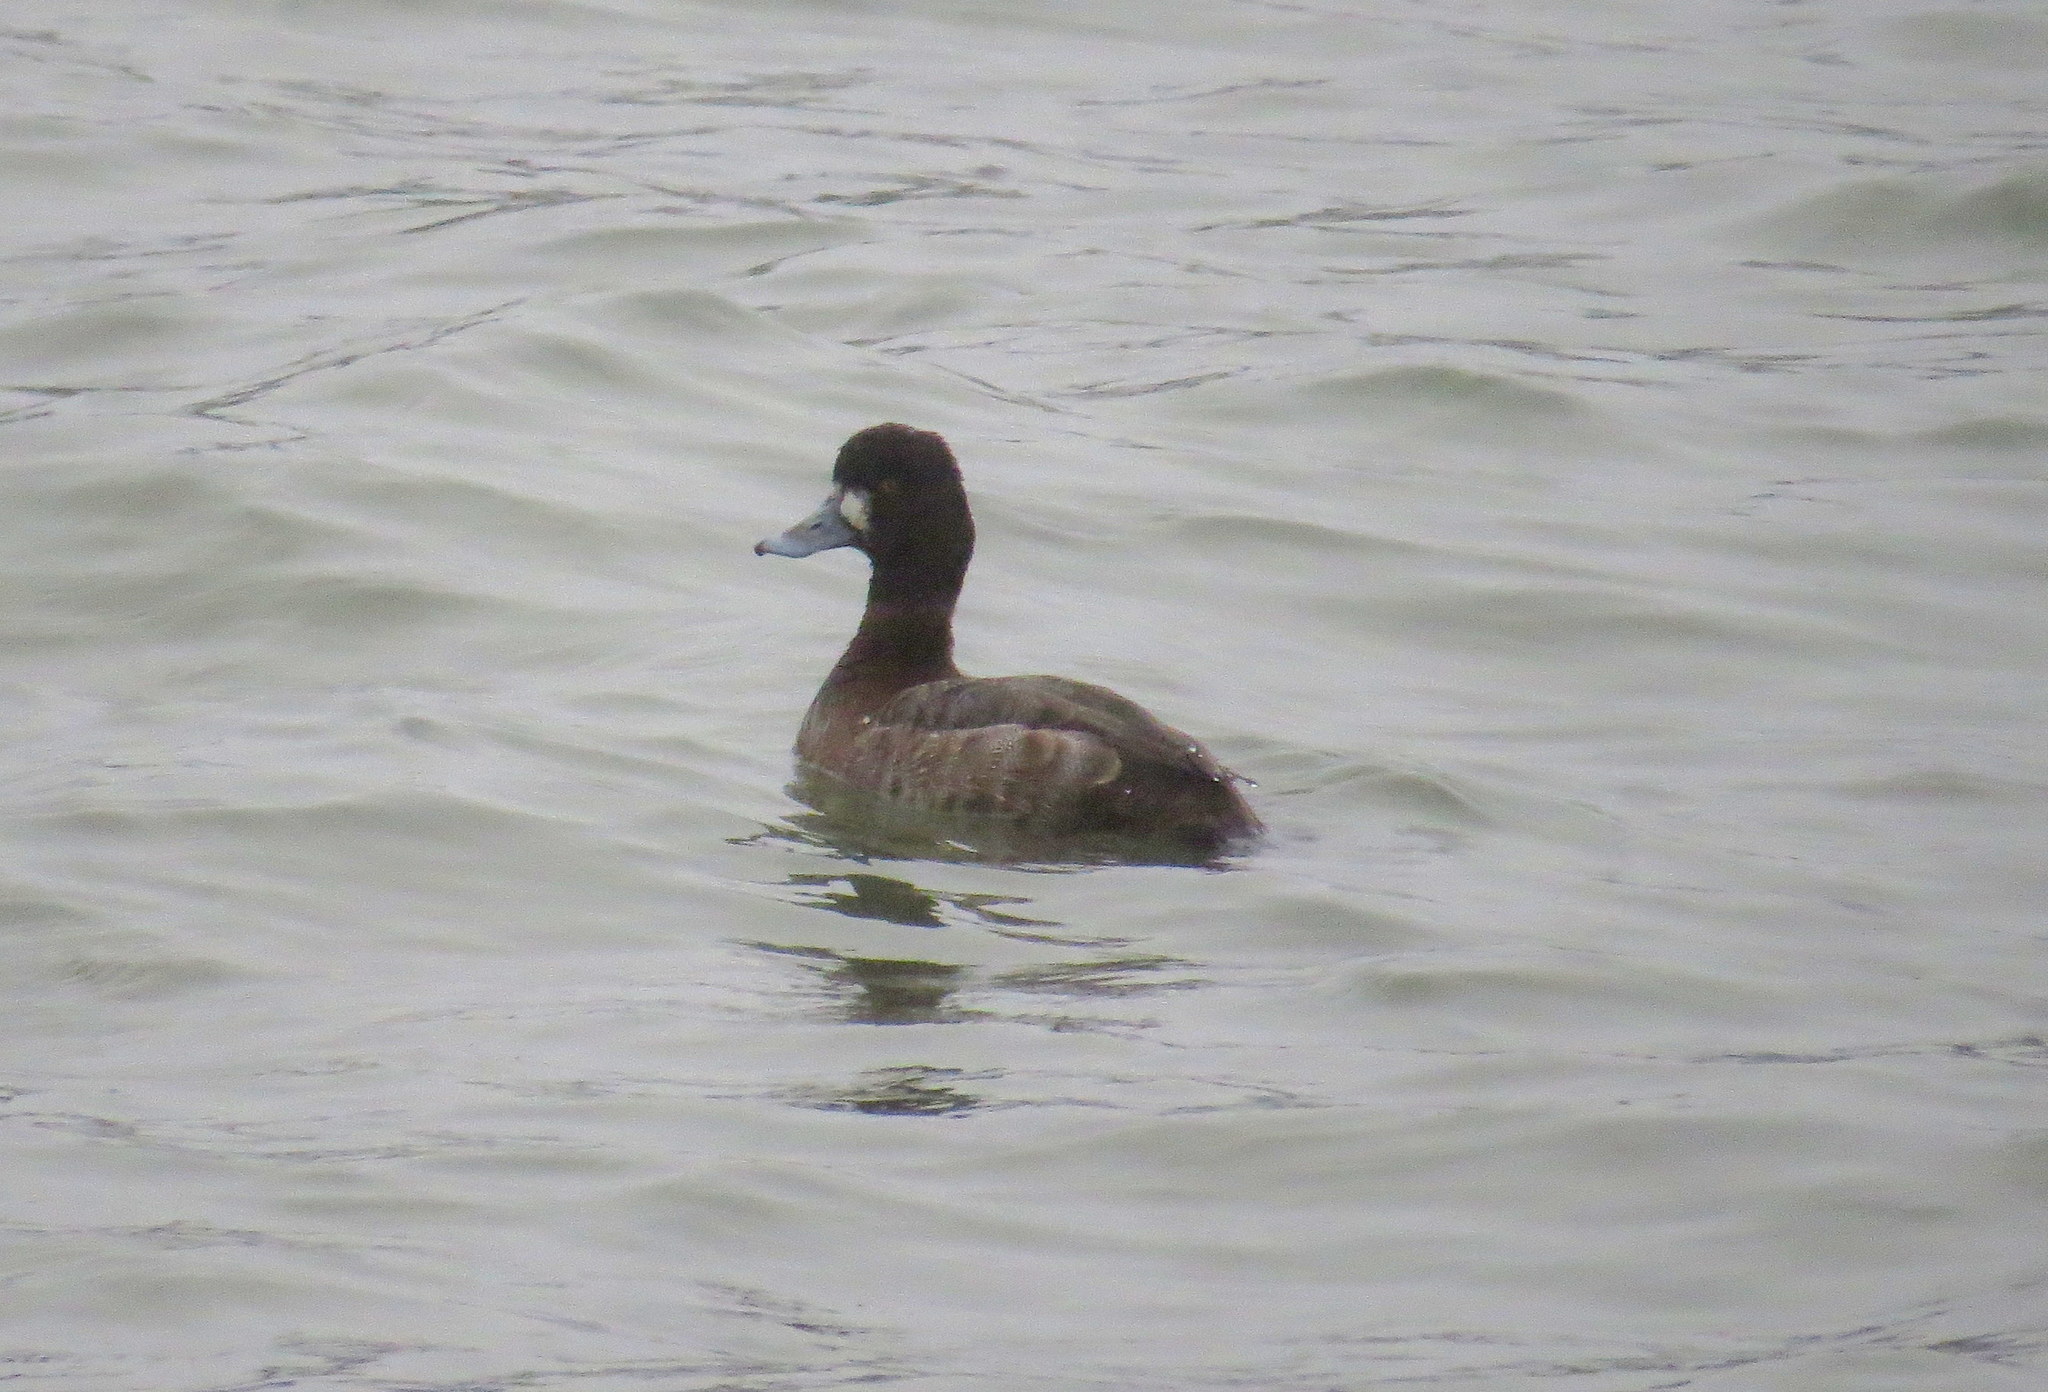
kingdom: Animalia
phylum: Chordata
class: Aves
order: Anseriformes
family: Anatidae
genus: Aythya
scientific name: Aythya affinis
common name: Lesser scaup
